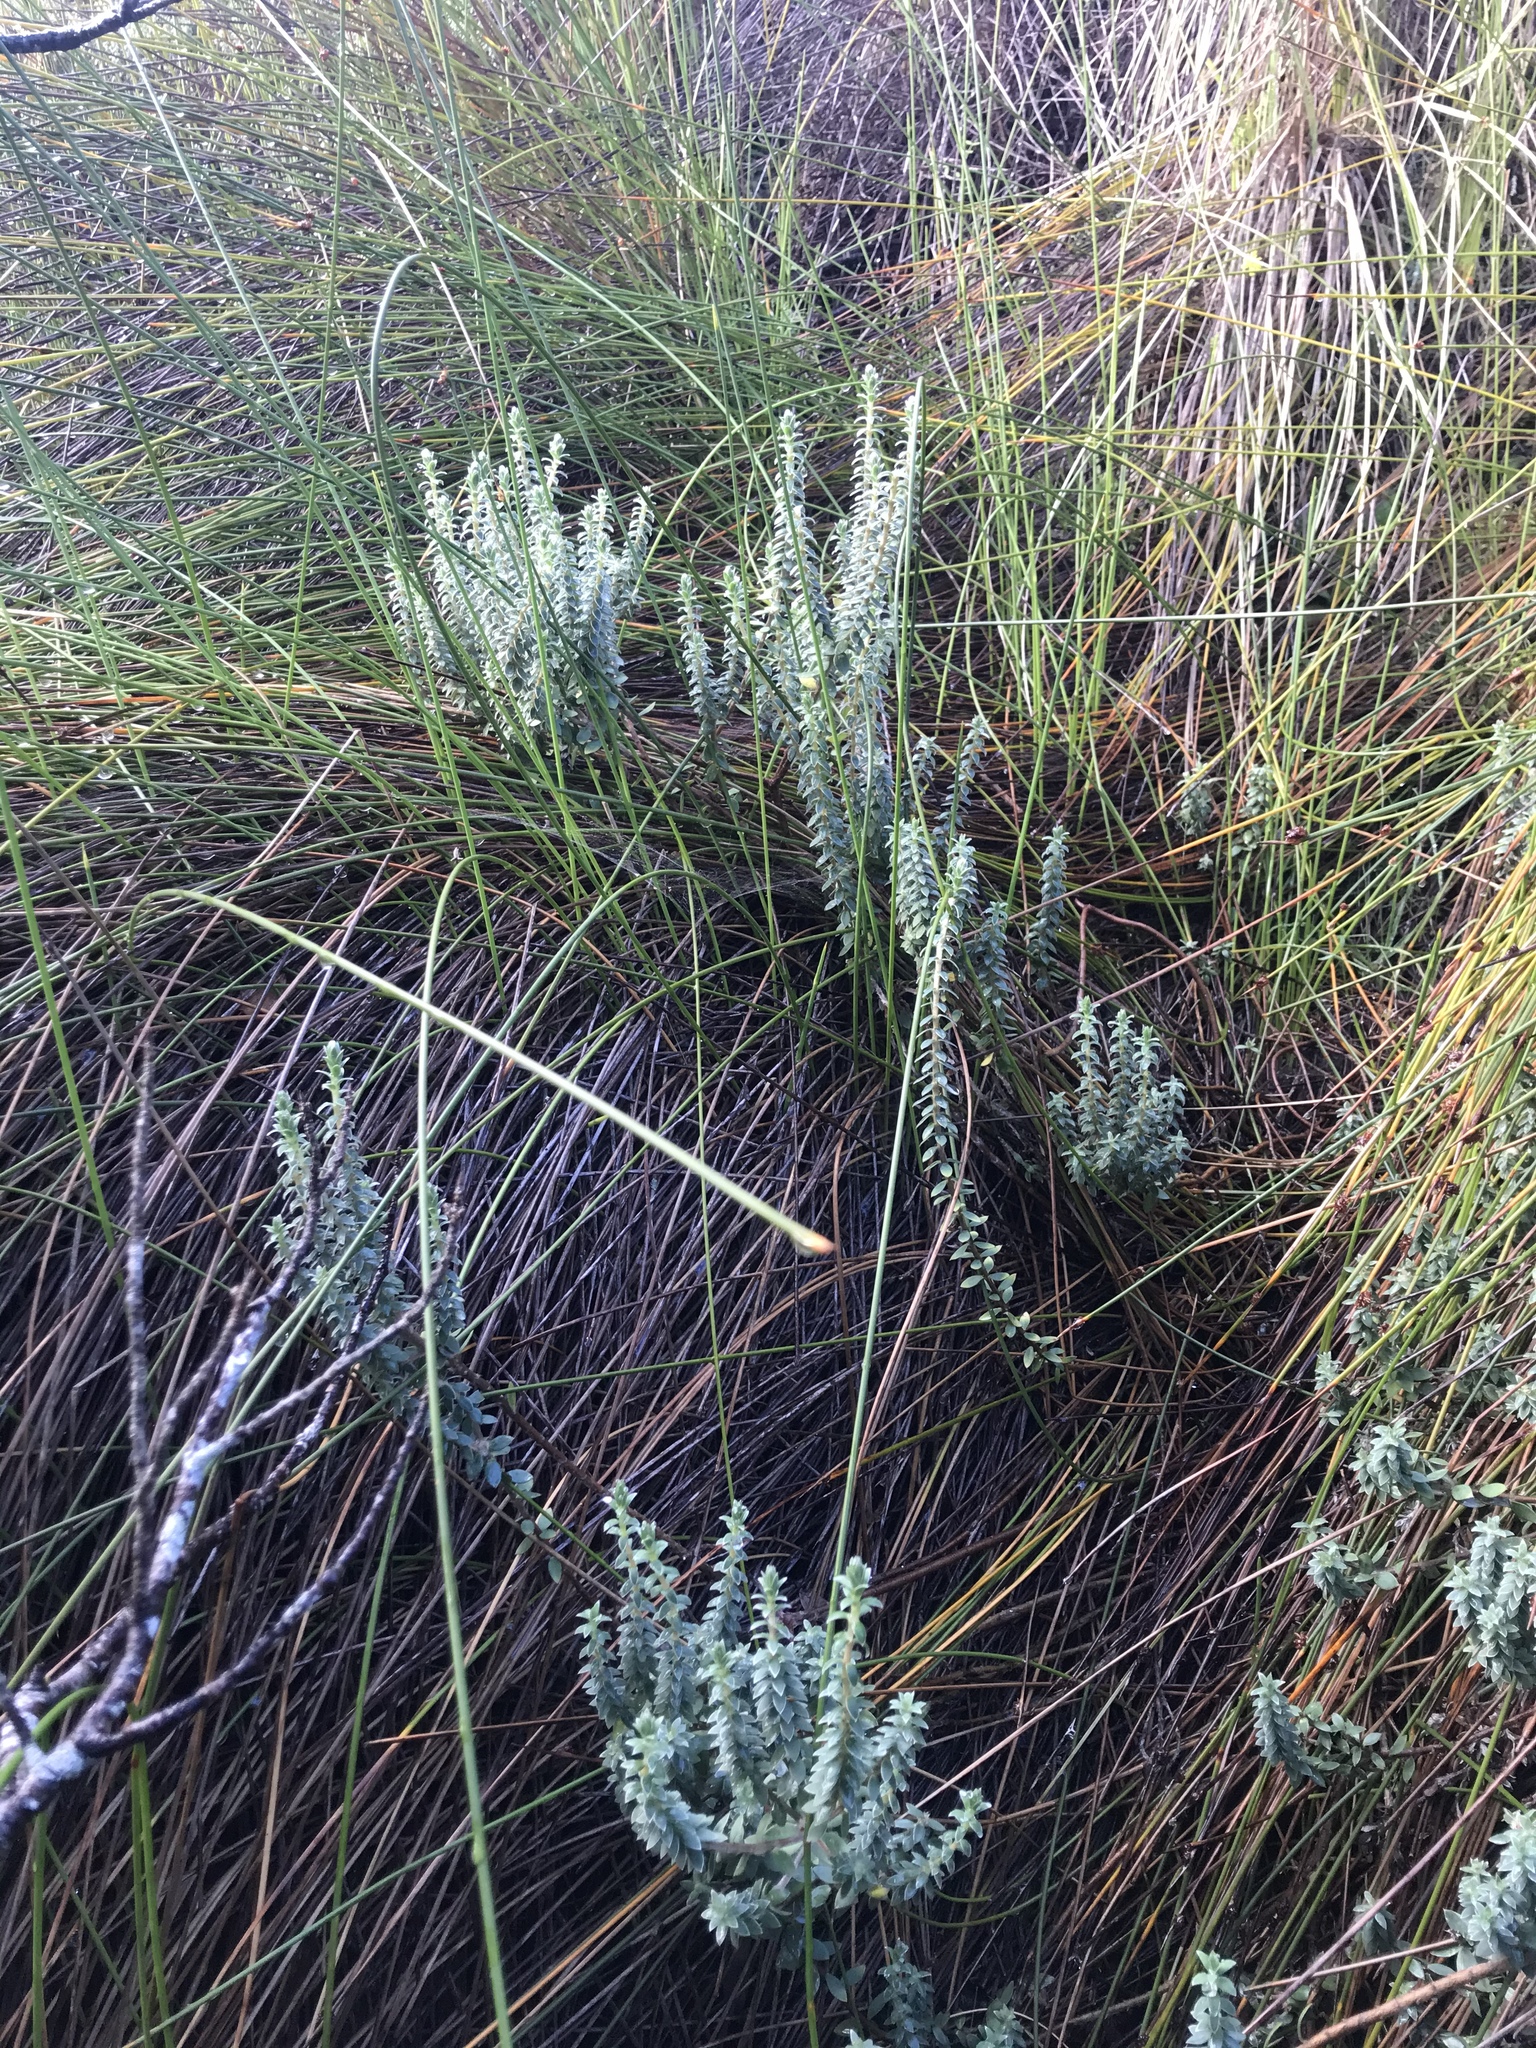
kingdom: Plantae
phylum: Tracheophyta
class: Magnoliopsida
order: Malvales
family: Thymelaeaceae
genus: Pimelea
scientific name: Pimelea villosa
